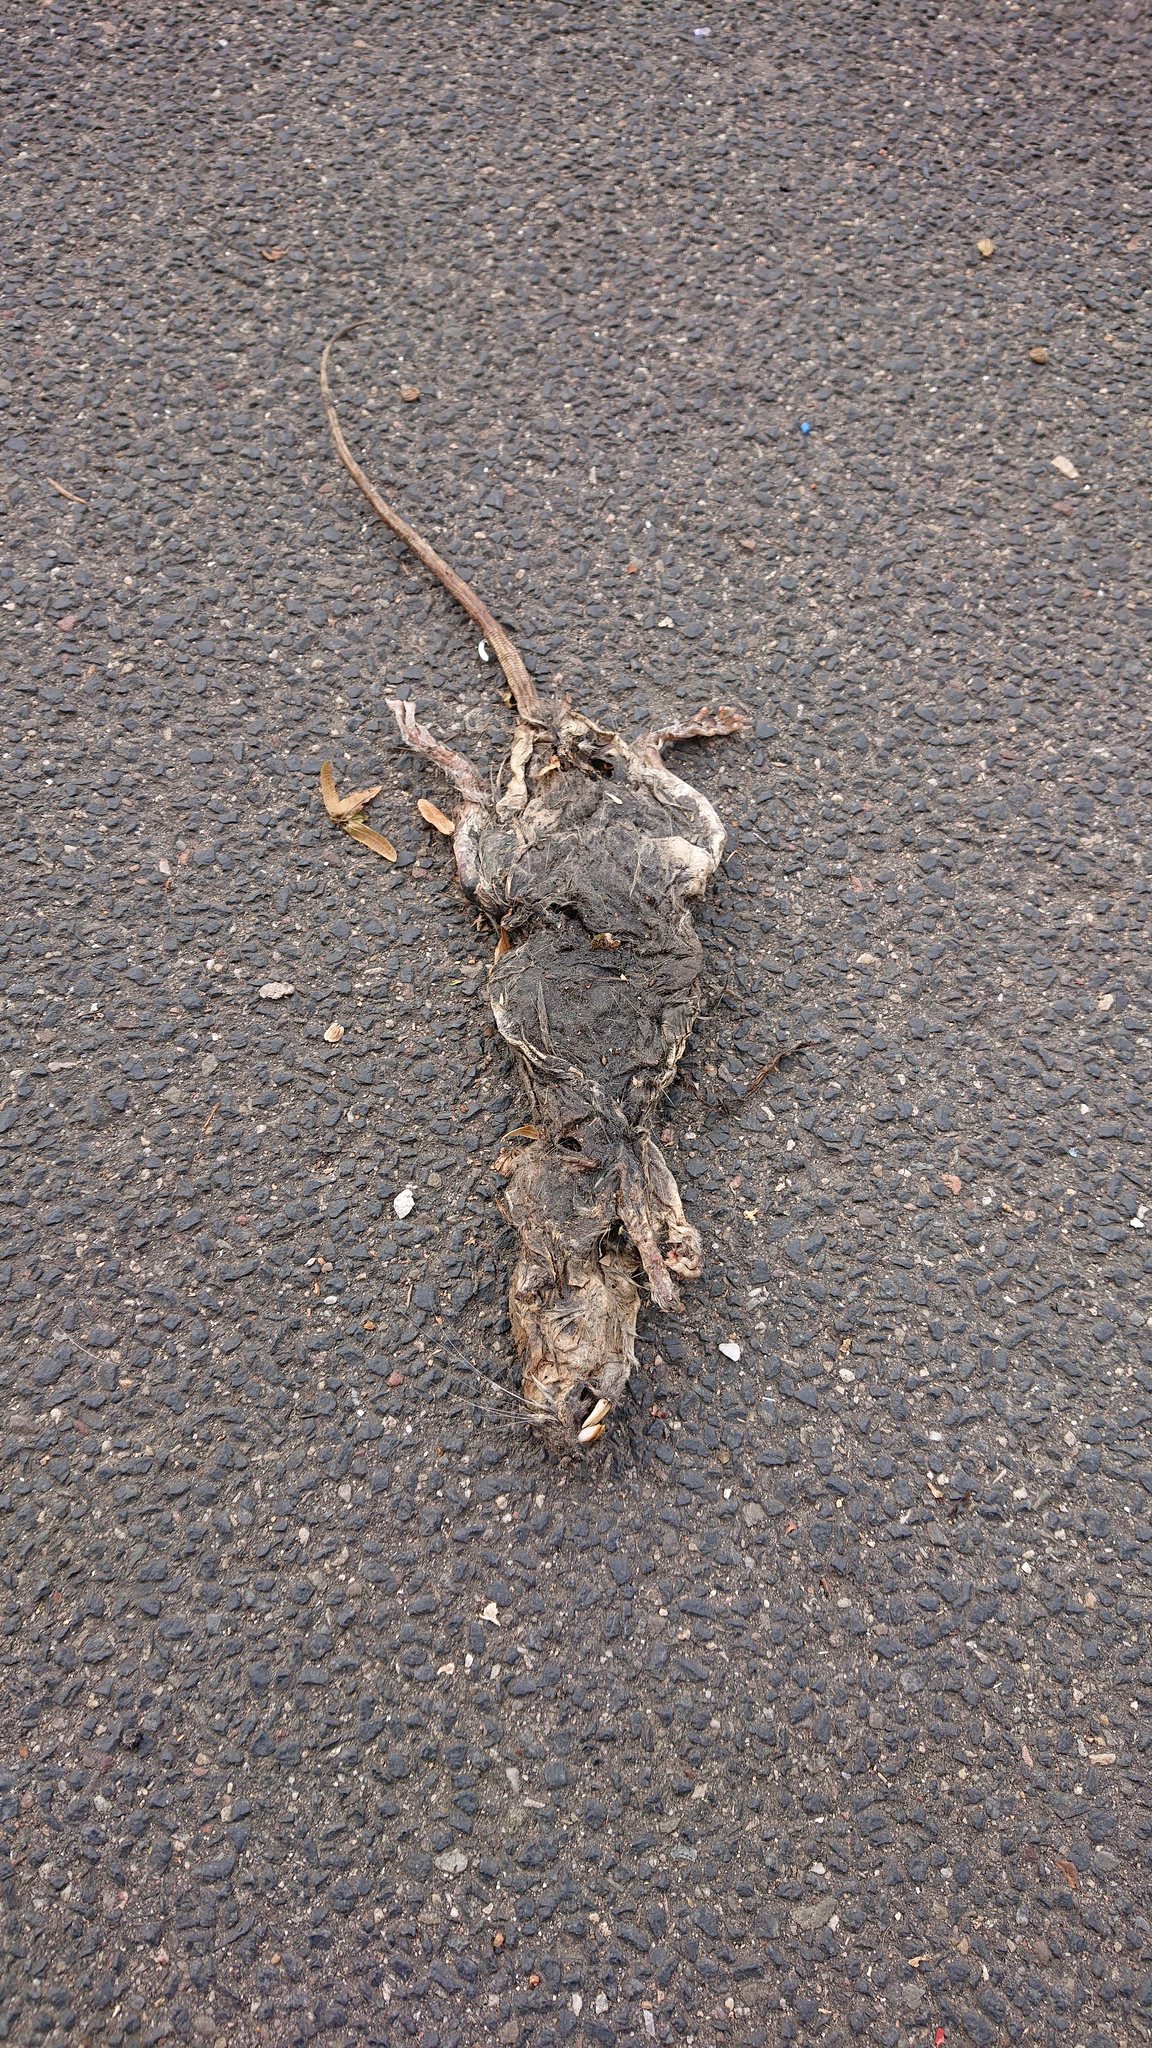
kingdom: Animalia
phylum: Chordata
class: Mammalia
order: Rodentia
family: Muridae
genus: Rattus
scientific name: Rattus norvegicus
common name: Brown rat
